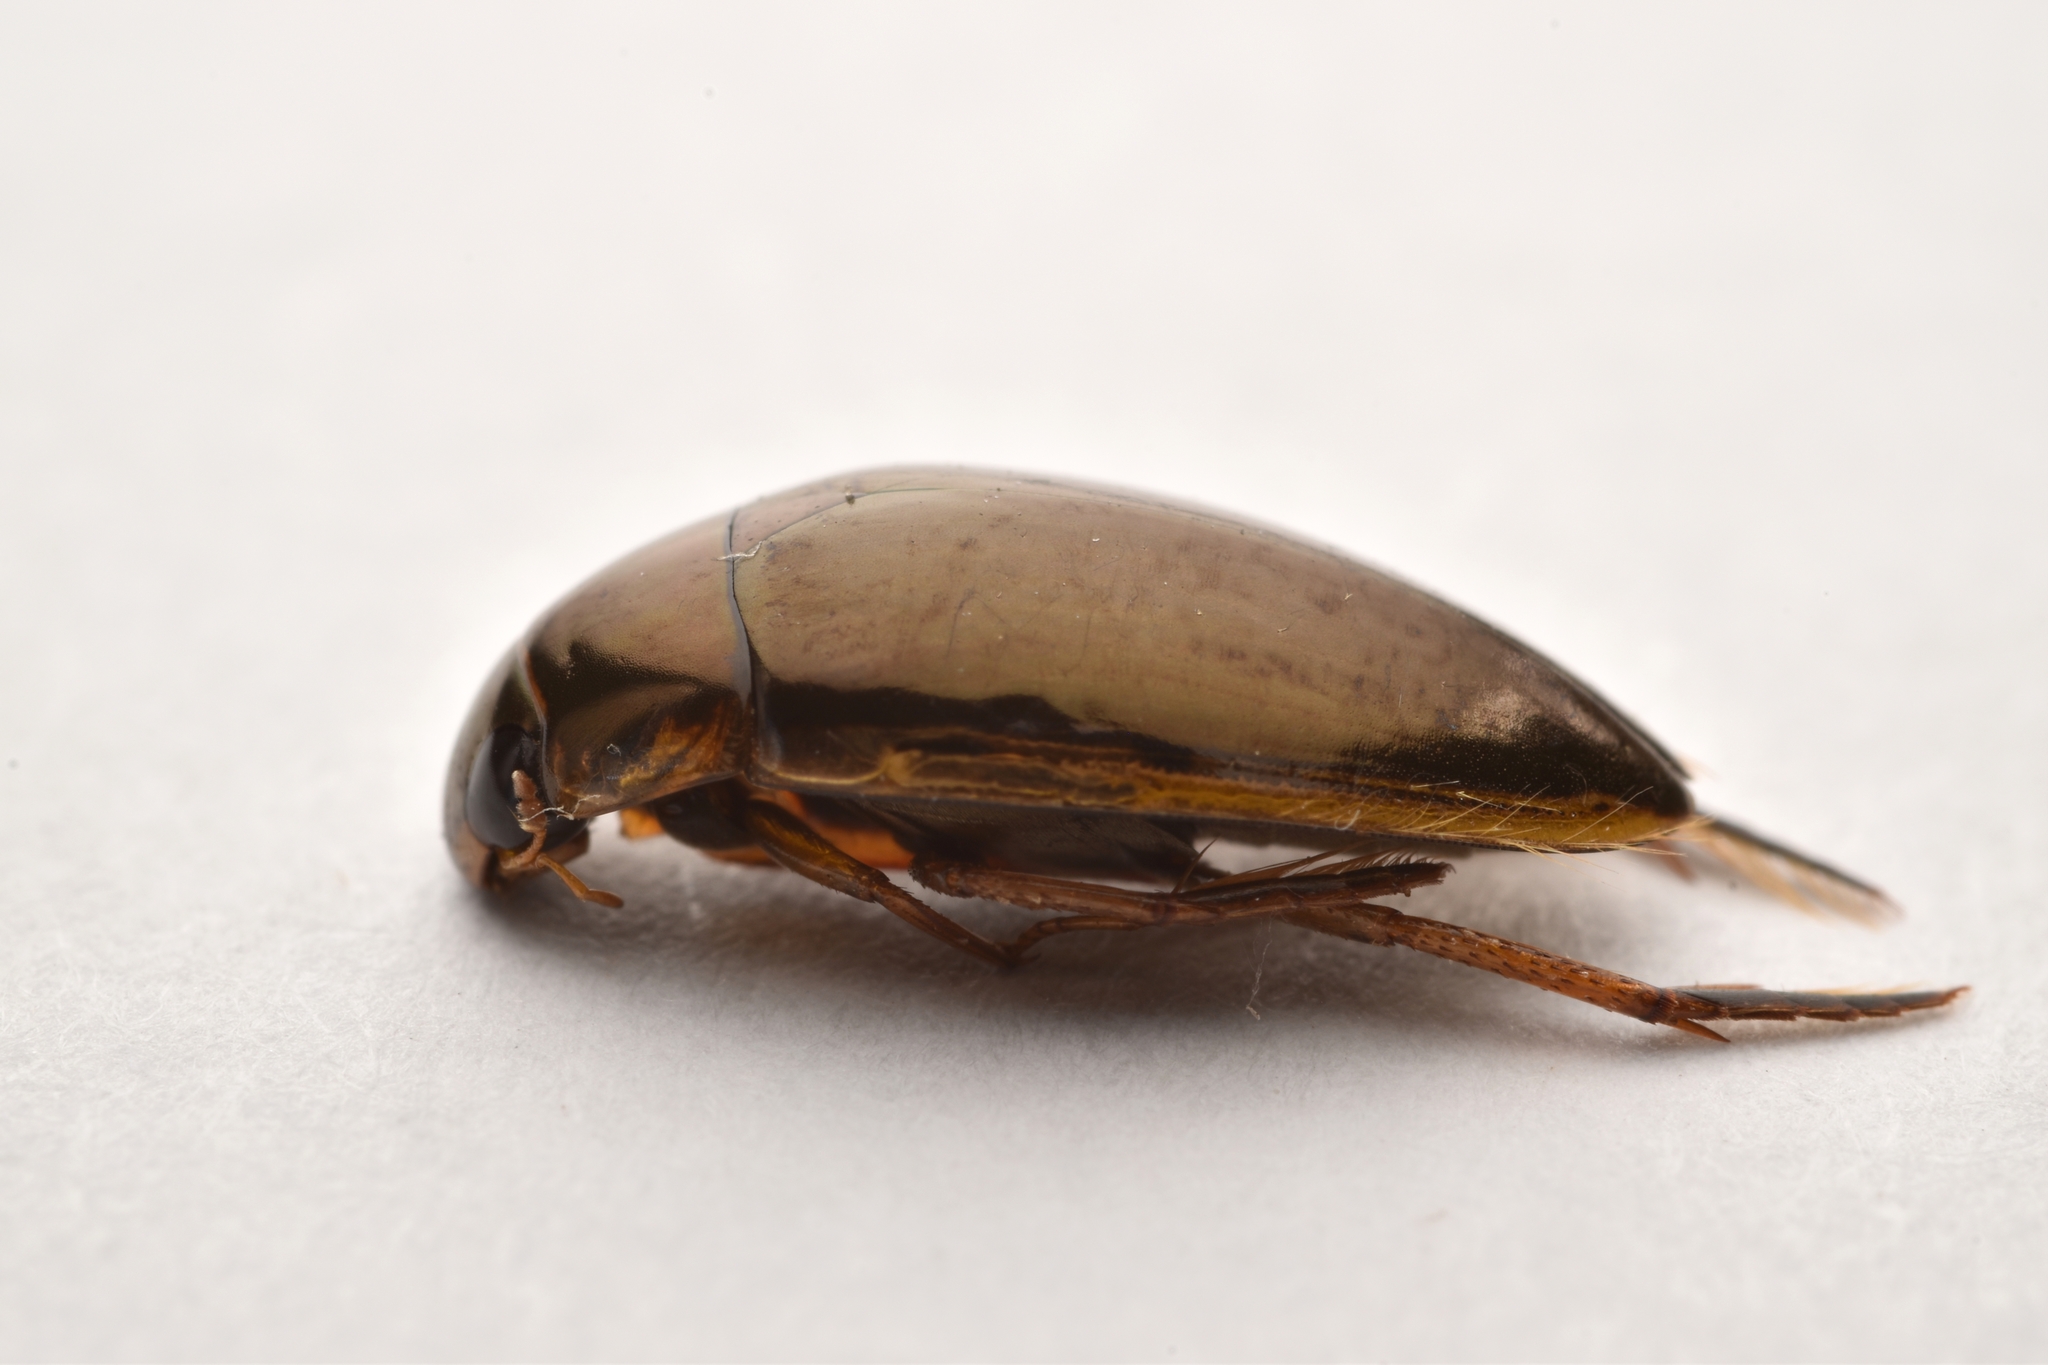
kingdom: Animalia
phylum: Arthropoda
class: Insecta
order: Coleoptera
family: Hydrophilidae
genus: Tropisternus
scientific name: Tropisternus lateralis
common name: Lateral-banded water scavenger beetle
